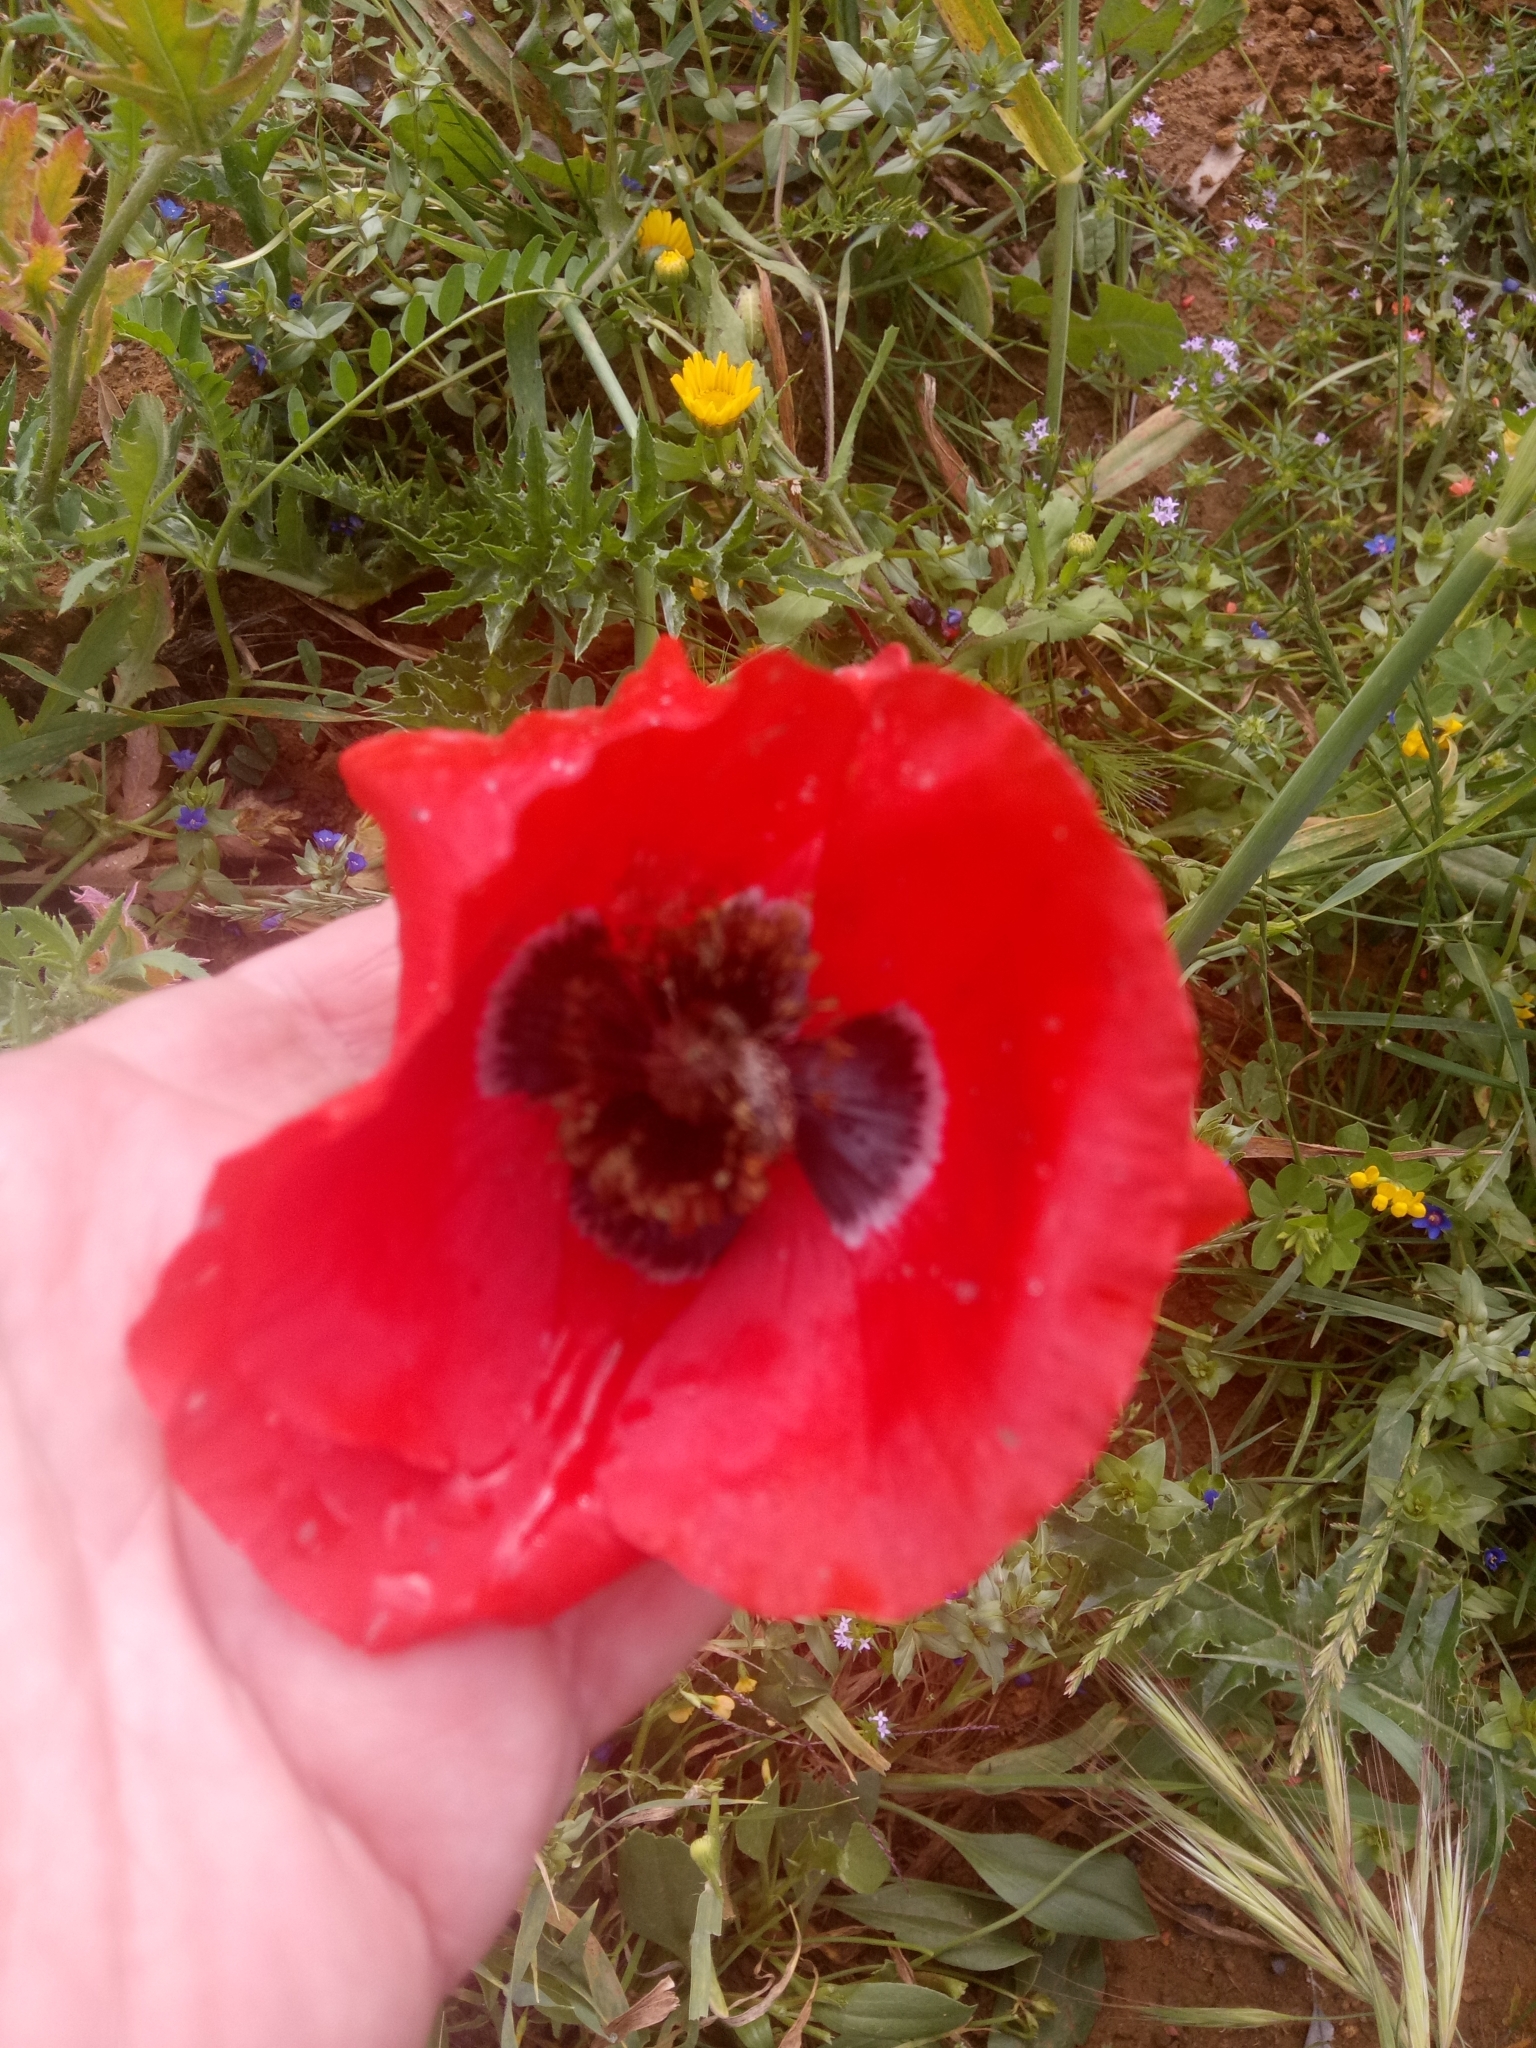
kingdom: Plantae
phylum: Tracheophyta
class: Magnoliopsida
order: Ranunculales
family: Papaveraceae
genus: Papaver
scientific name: Papaver rhoeas
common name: Corn poppy
